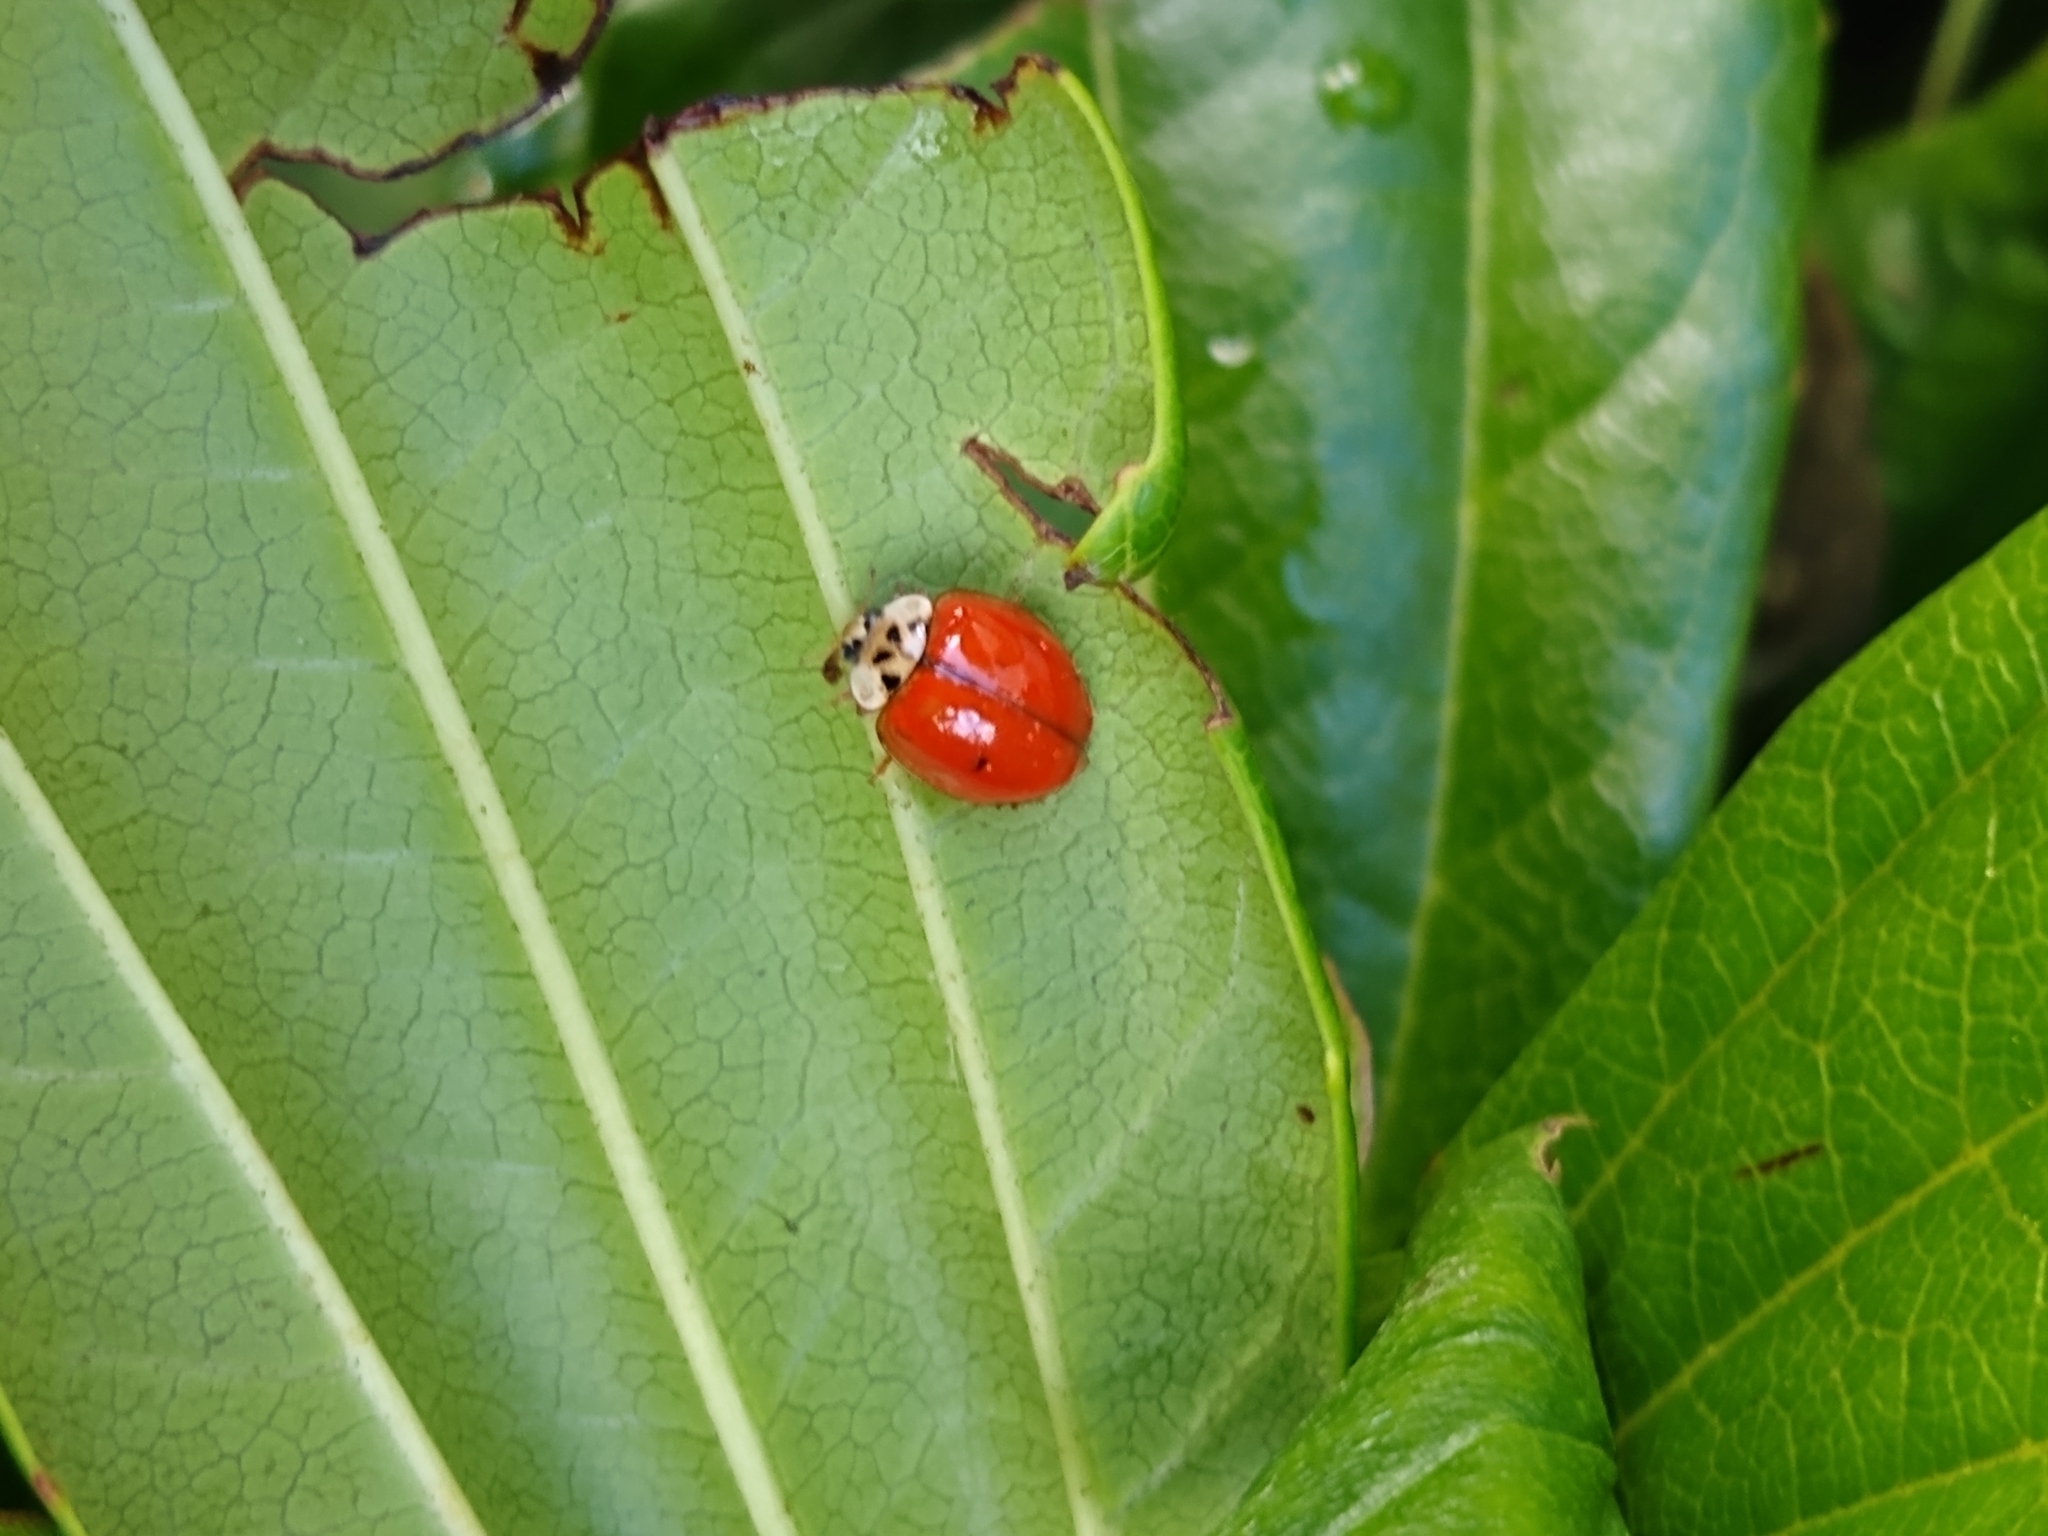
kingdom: Animalia
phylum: Arthropoda
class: Insecta
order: Coleoptera
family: Coccinellidae
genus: Harmonia
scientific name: Harmonia axyridis
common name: Harlequin ladybird
